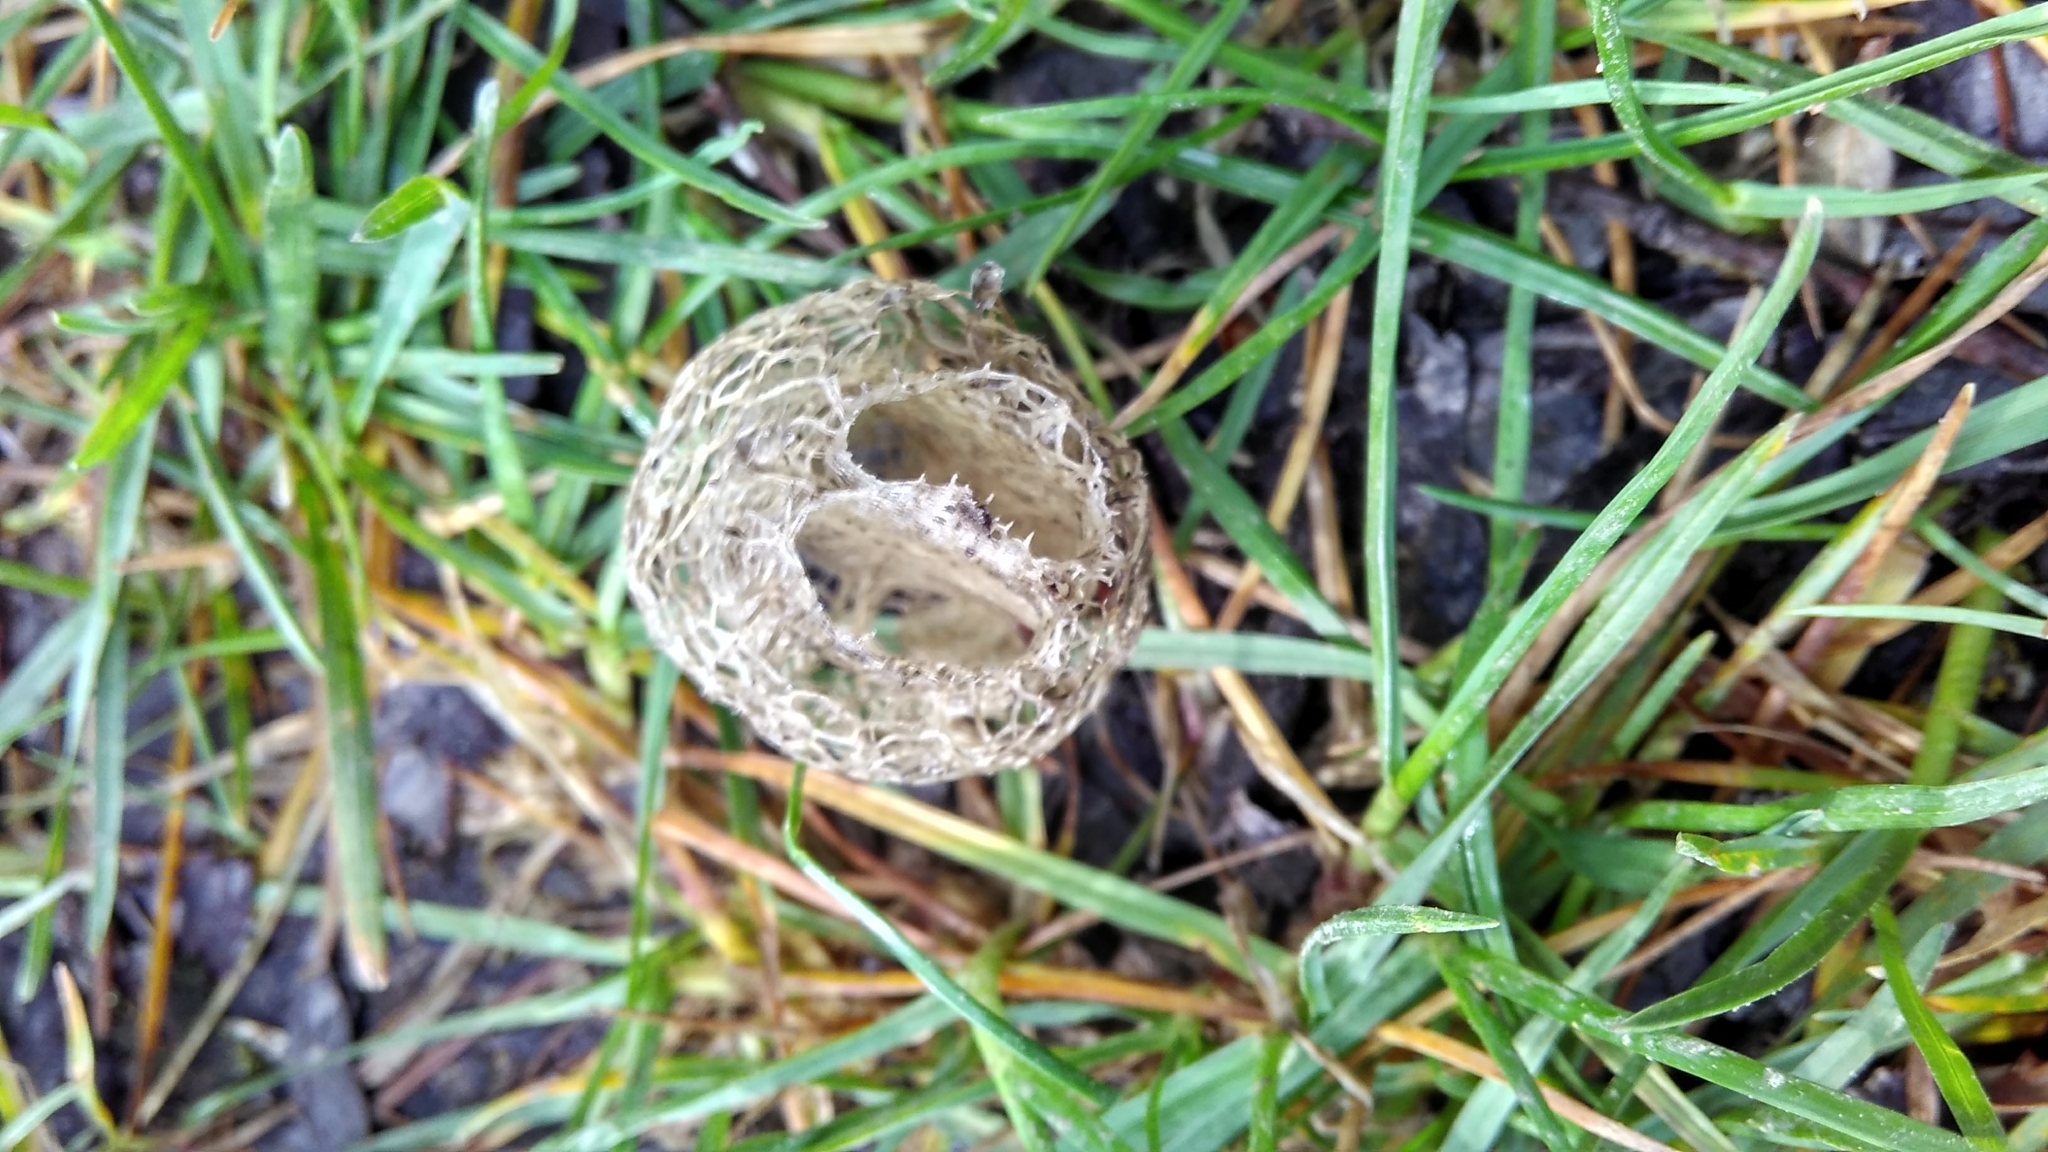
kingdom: Plantae
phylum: Tracheophyta
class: Magnoliopsida
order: Cucurbitales
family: Cucurbitaceae
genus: Echinocystis
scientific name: Echinocystis lobata
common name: Wild cucumber
